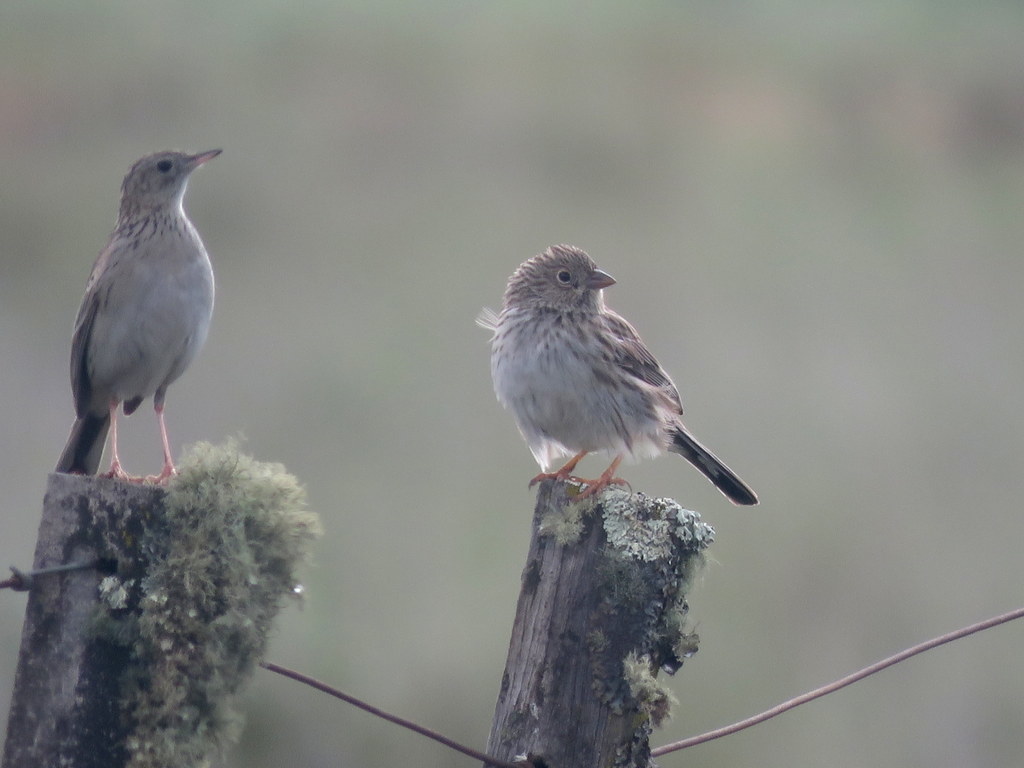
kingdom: Animalia
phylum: Chordata
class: Aves
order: Passeriformes
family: Thraupidae
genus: Porphyrospiza
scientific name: Porphyrospiza alaudina
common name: Band-tailed sierra finch
